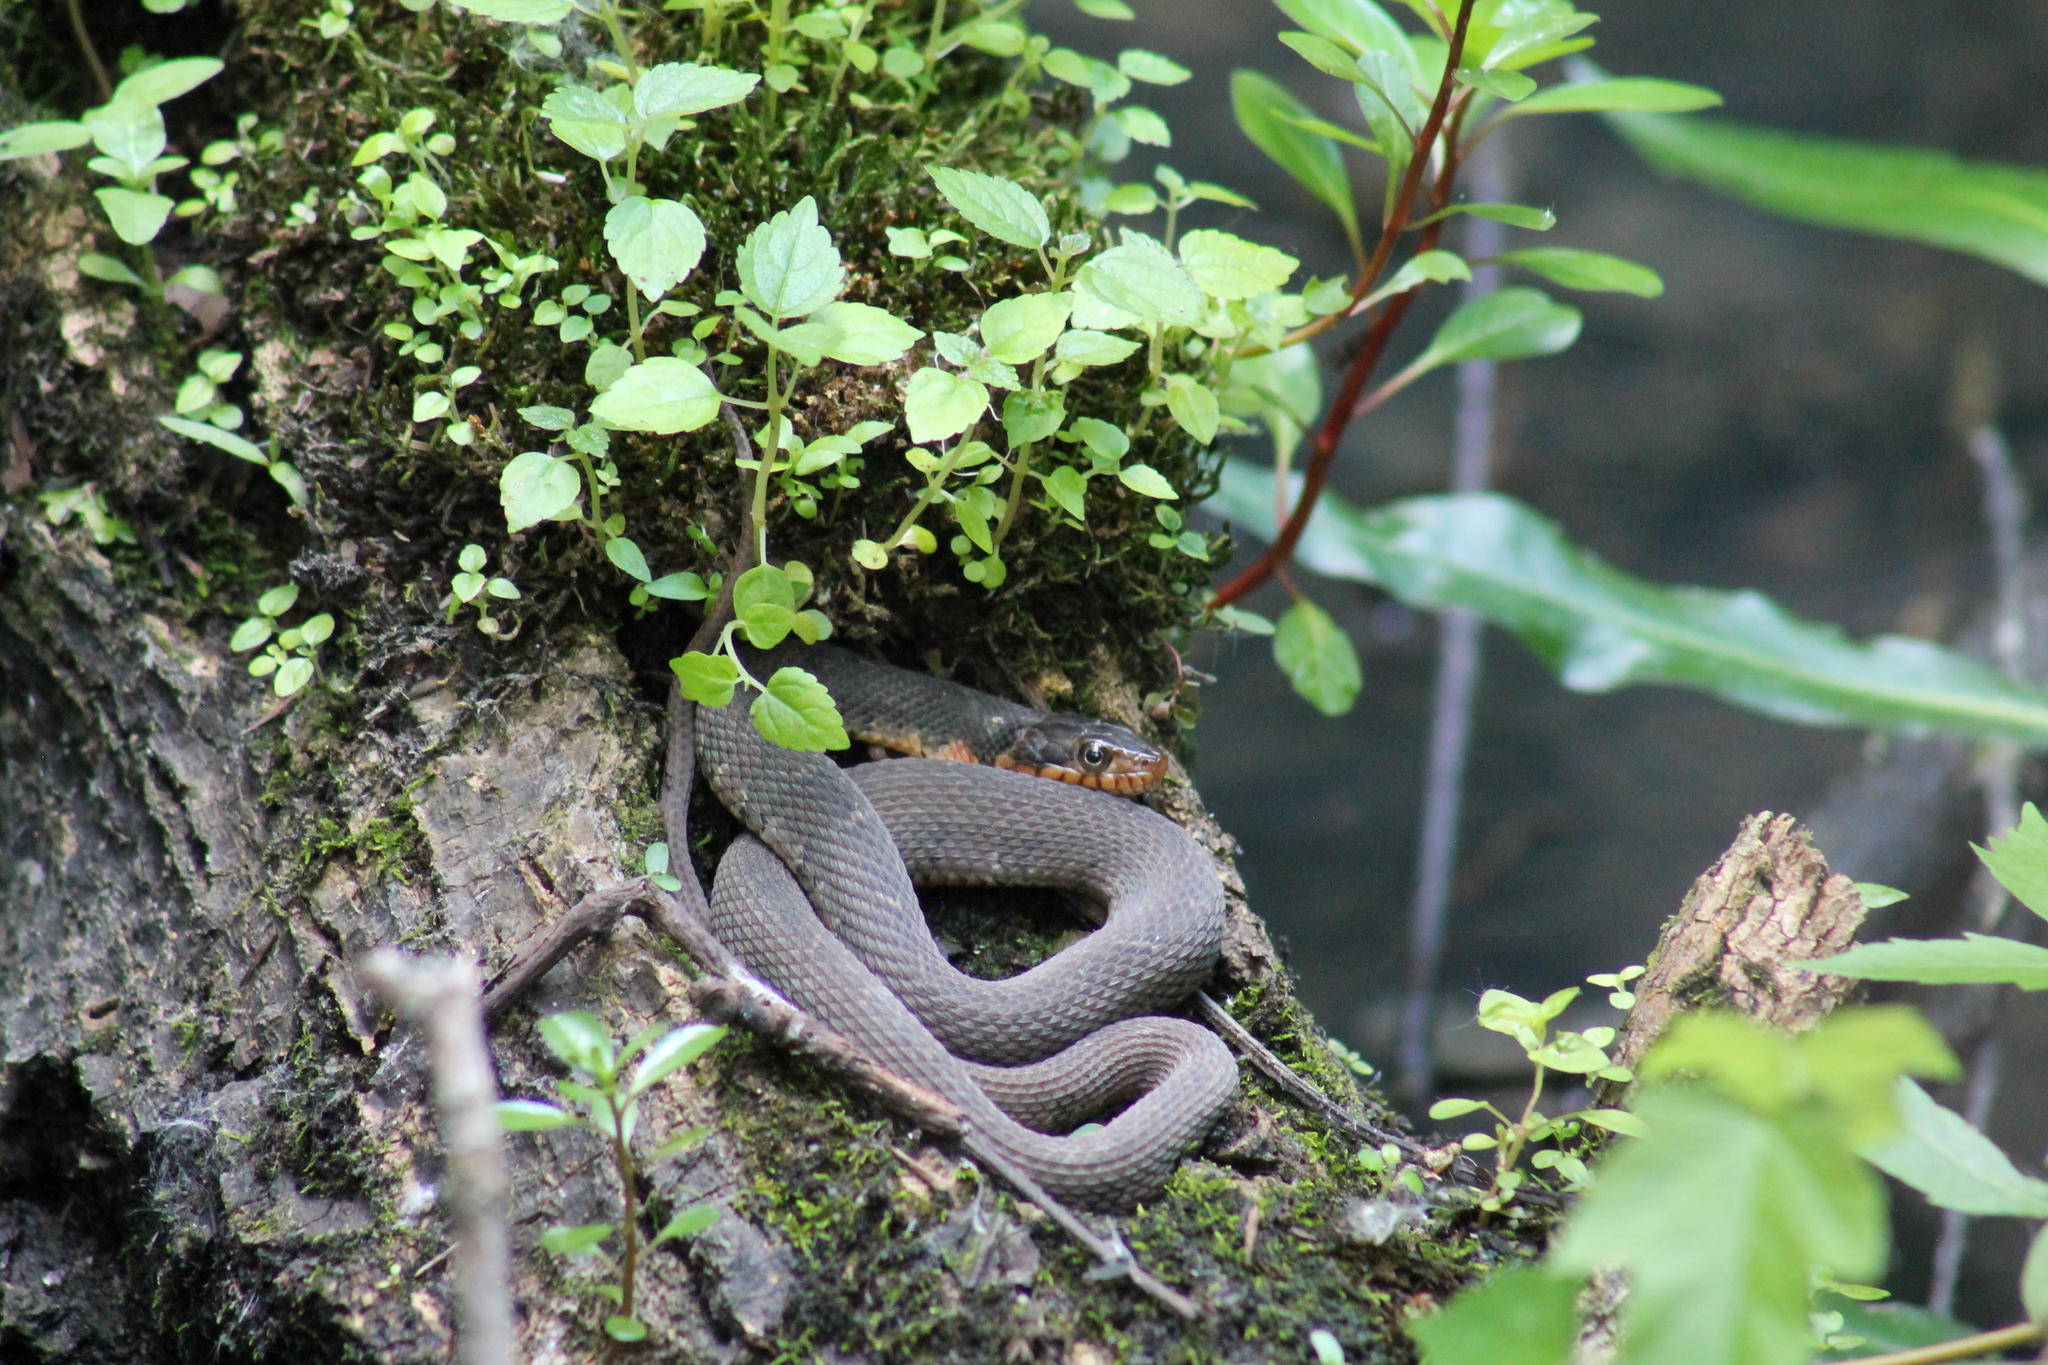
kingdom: Animalia
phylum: Chordata
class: Squamata
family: Colubridae
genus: Nerodia
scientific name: Nerodia erythrogaster
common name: Plainbelly water snake
